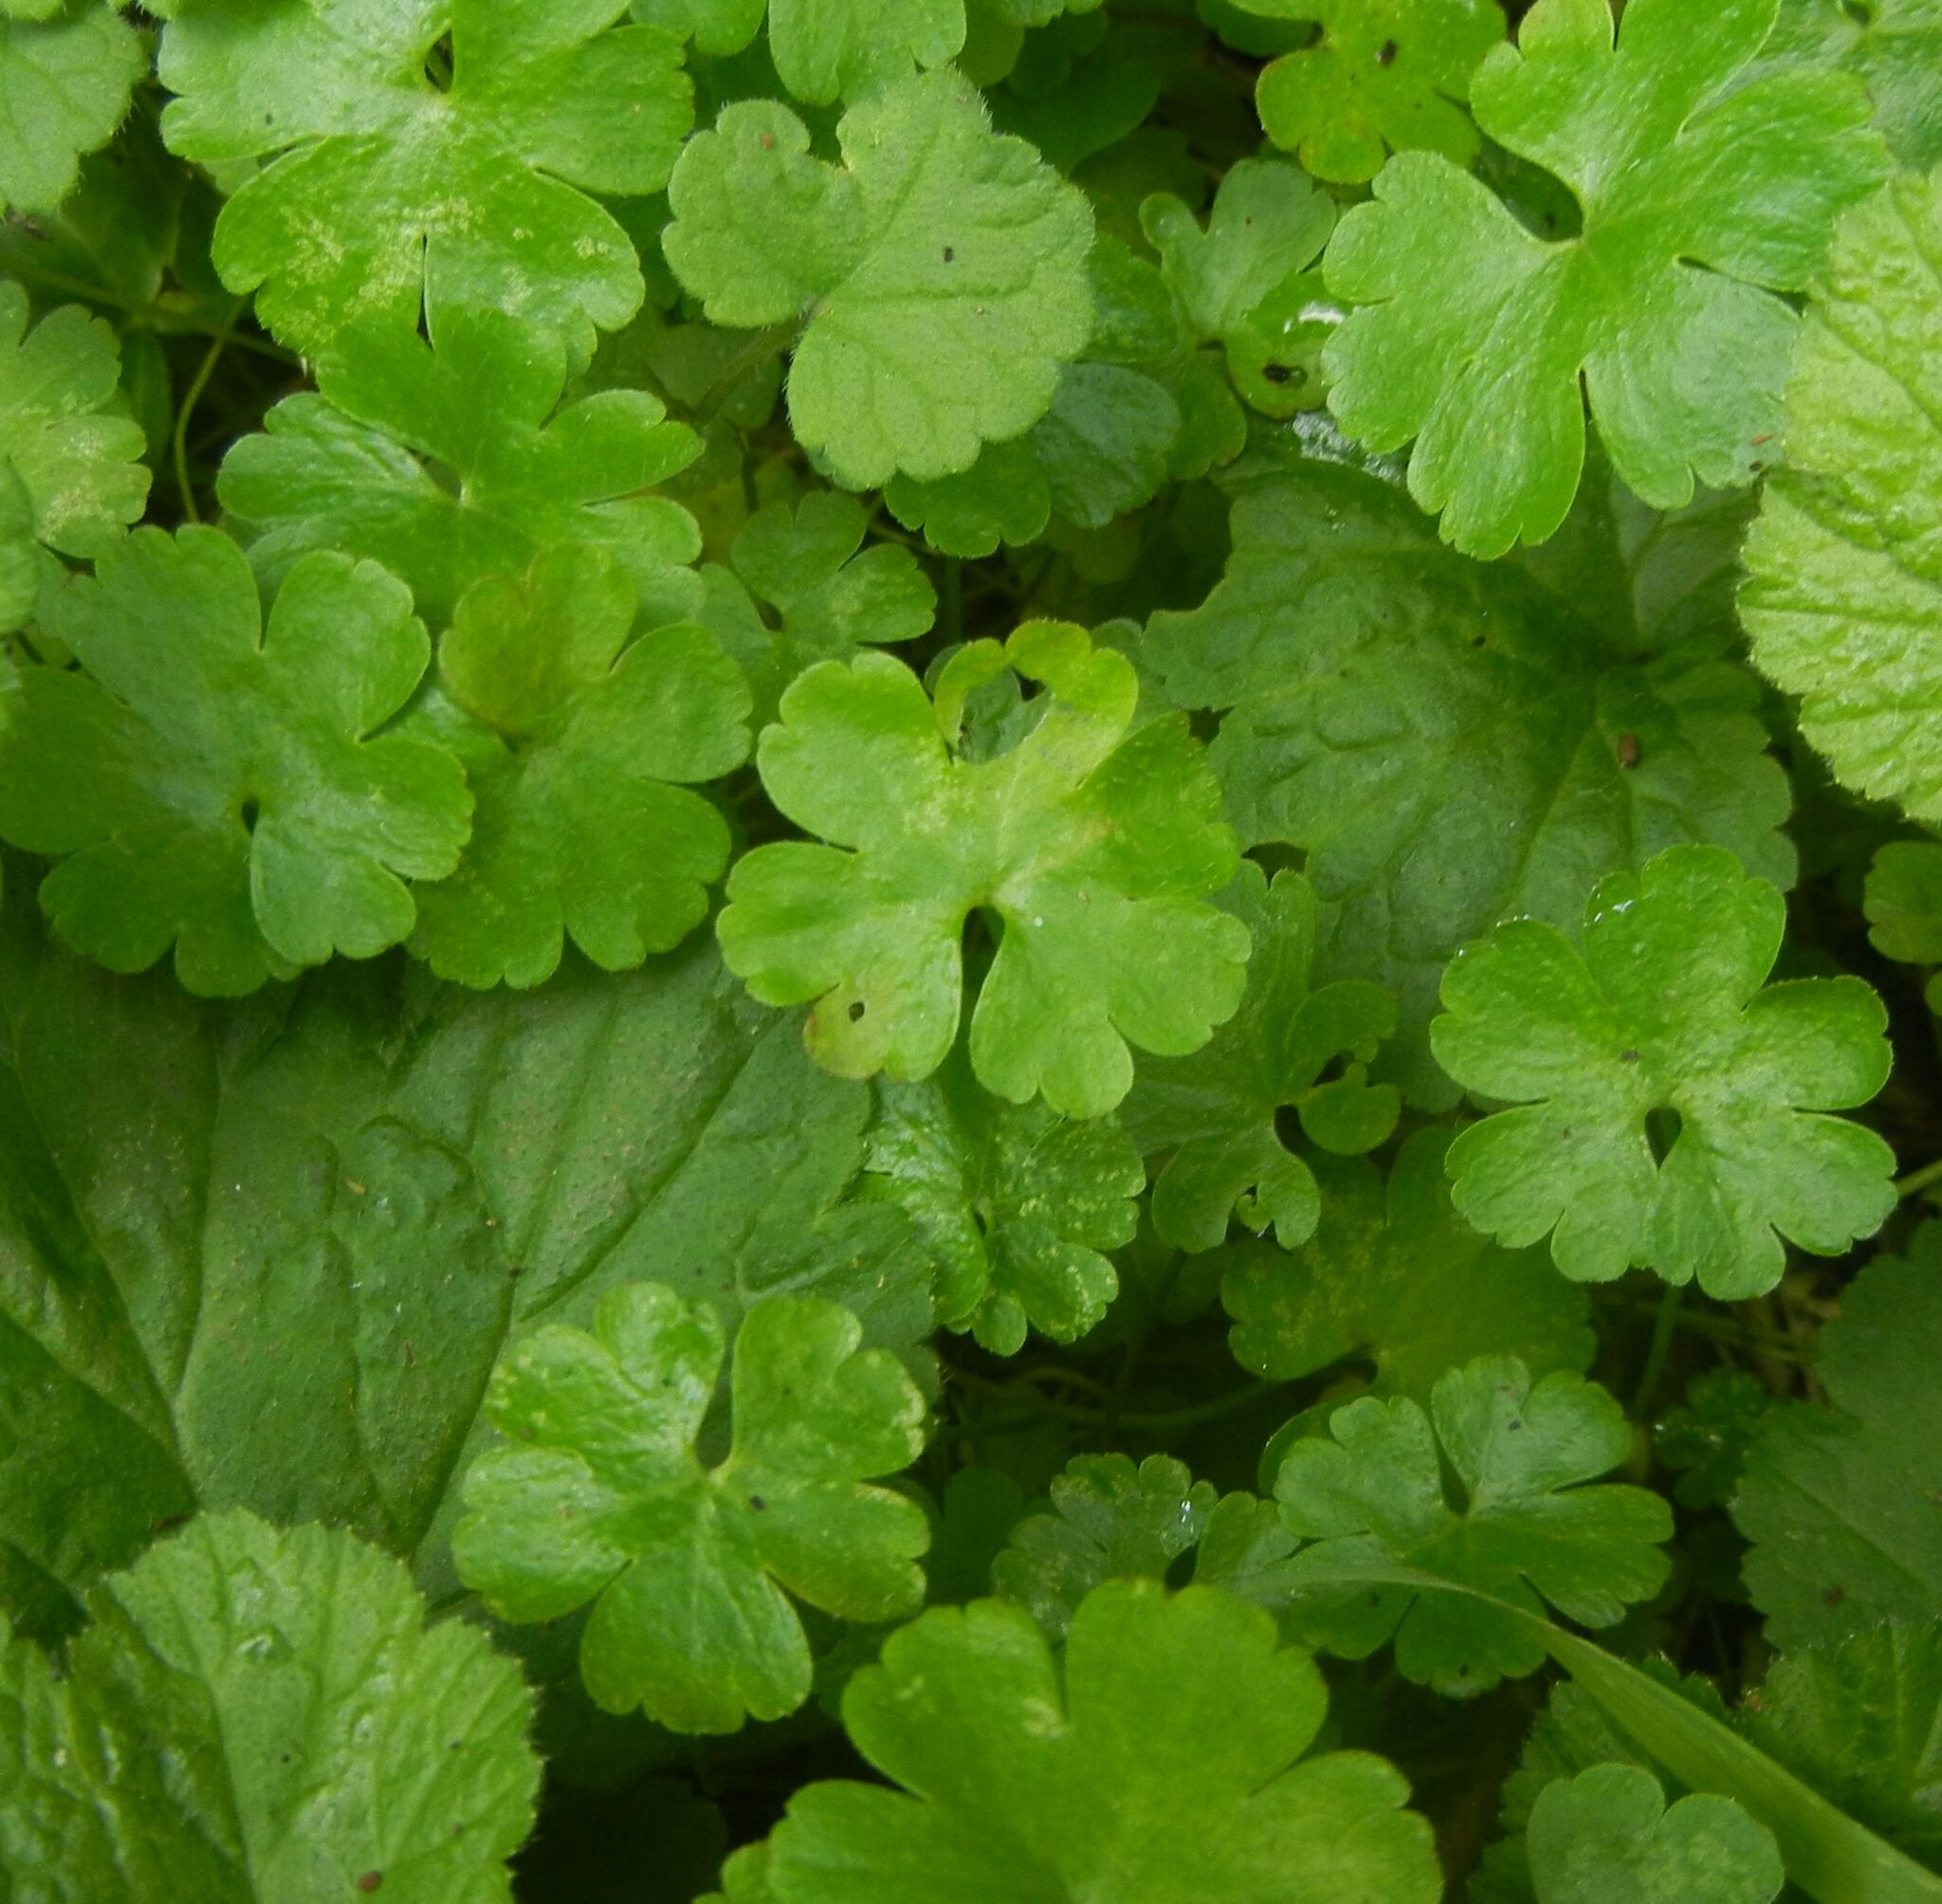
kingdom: Plantae
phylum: Tracheophyta
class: Magnoliopsida
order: Geraniales
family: Geraniaceae
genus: Geranium
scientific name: Geranium lucidum
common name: Shining crane's-bill
